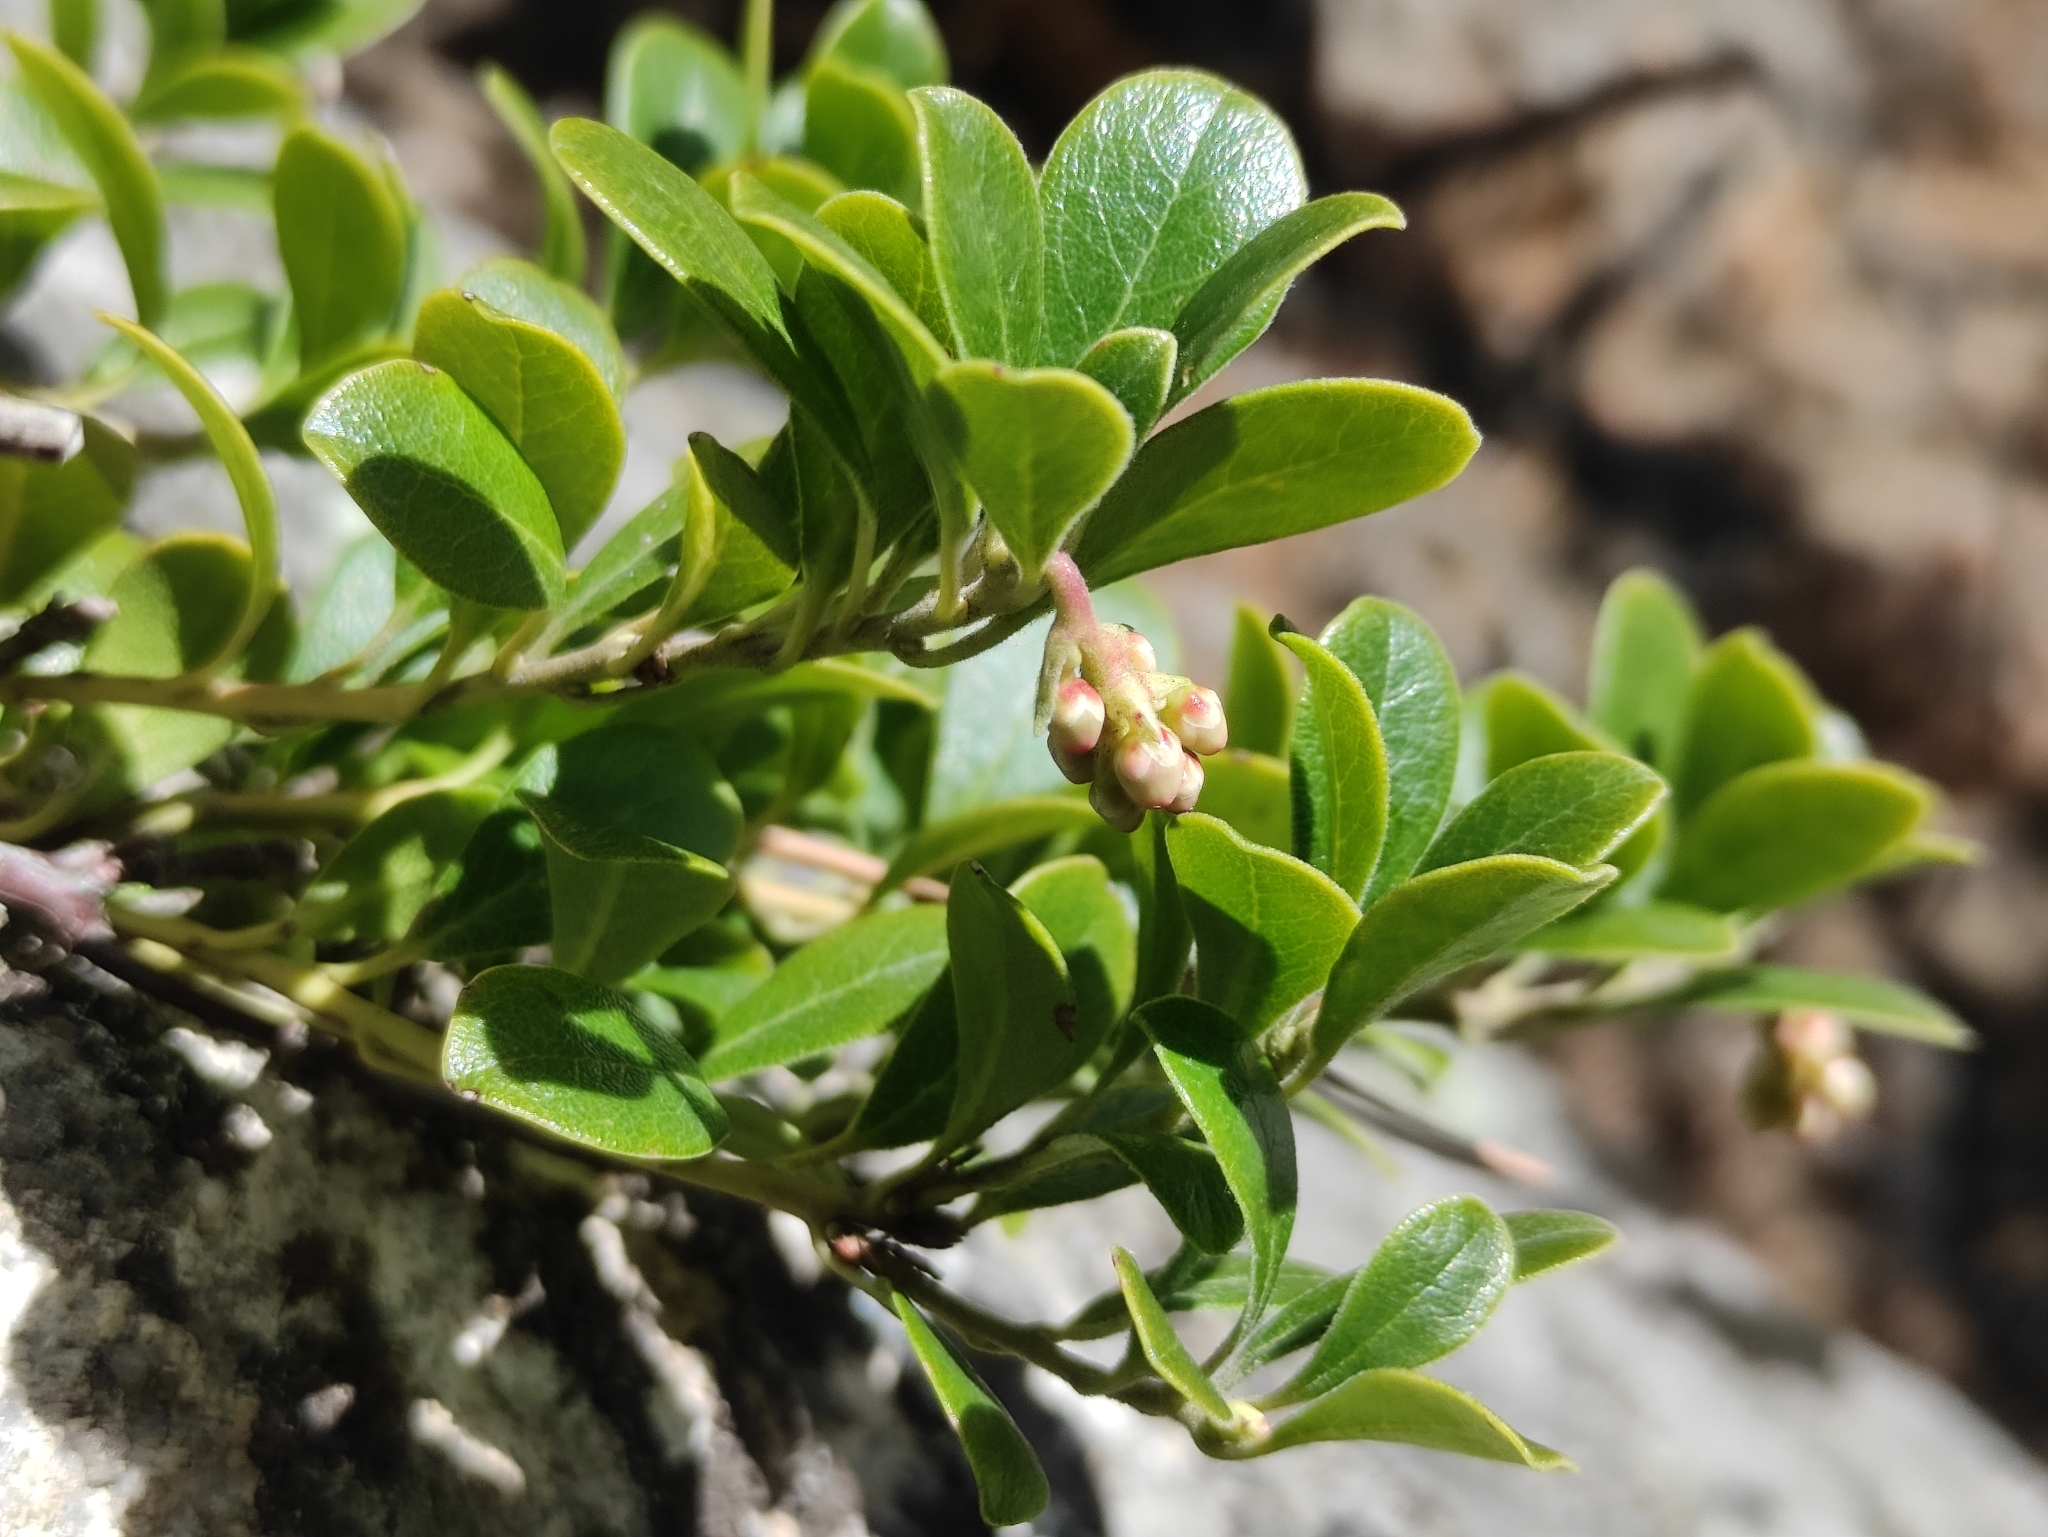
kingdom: Plantae
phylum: Tracheophyta
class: Magnoliopsida
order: Ericales
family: Ericaceae
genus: Arctostaphylos
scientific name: Arctostaphylos uva-ursi
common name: Bearberry
